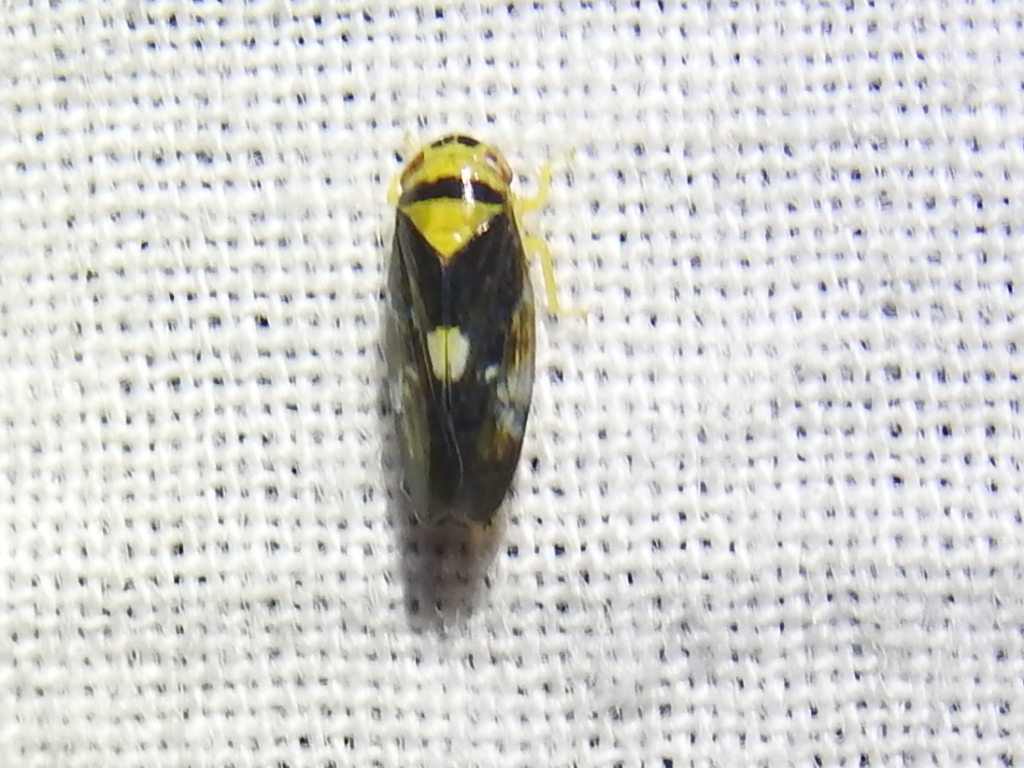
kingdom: Animalia
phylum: Arthropoda
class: Insecta
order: Hemiptera
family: Cicadellidae
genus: Eutettix
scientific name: Eutettix pictus
